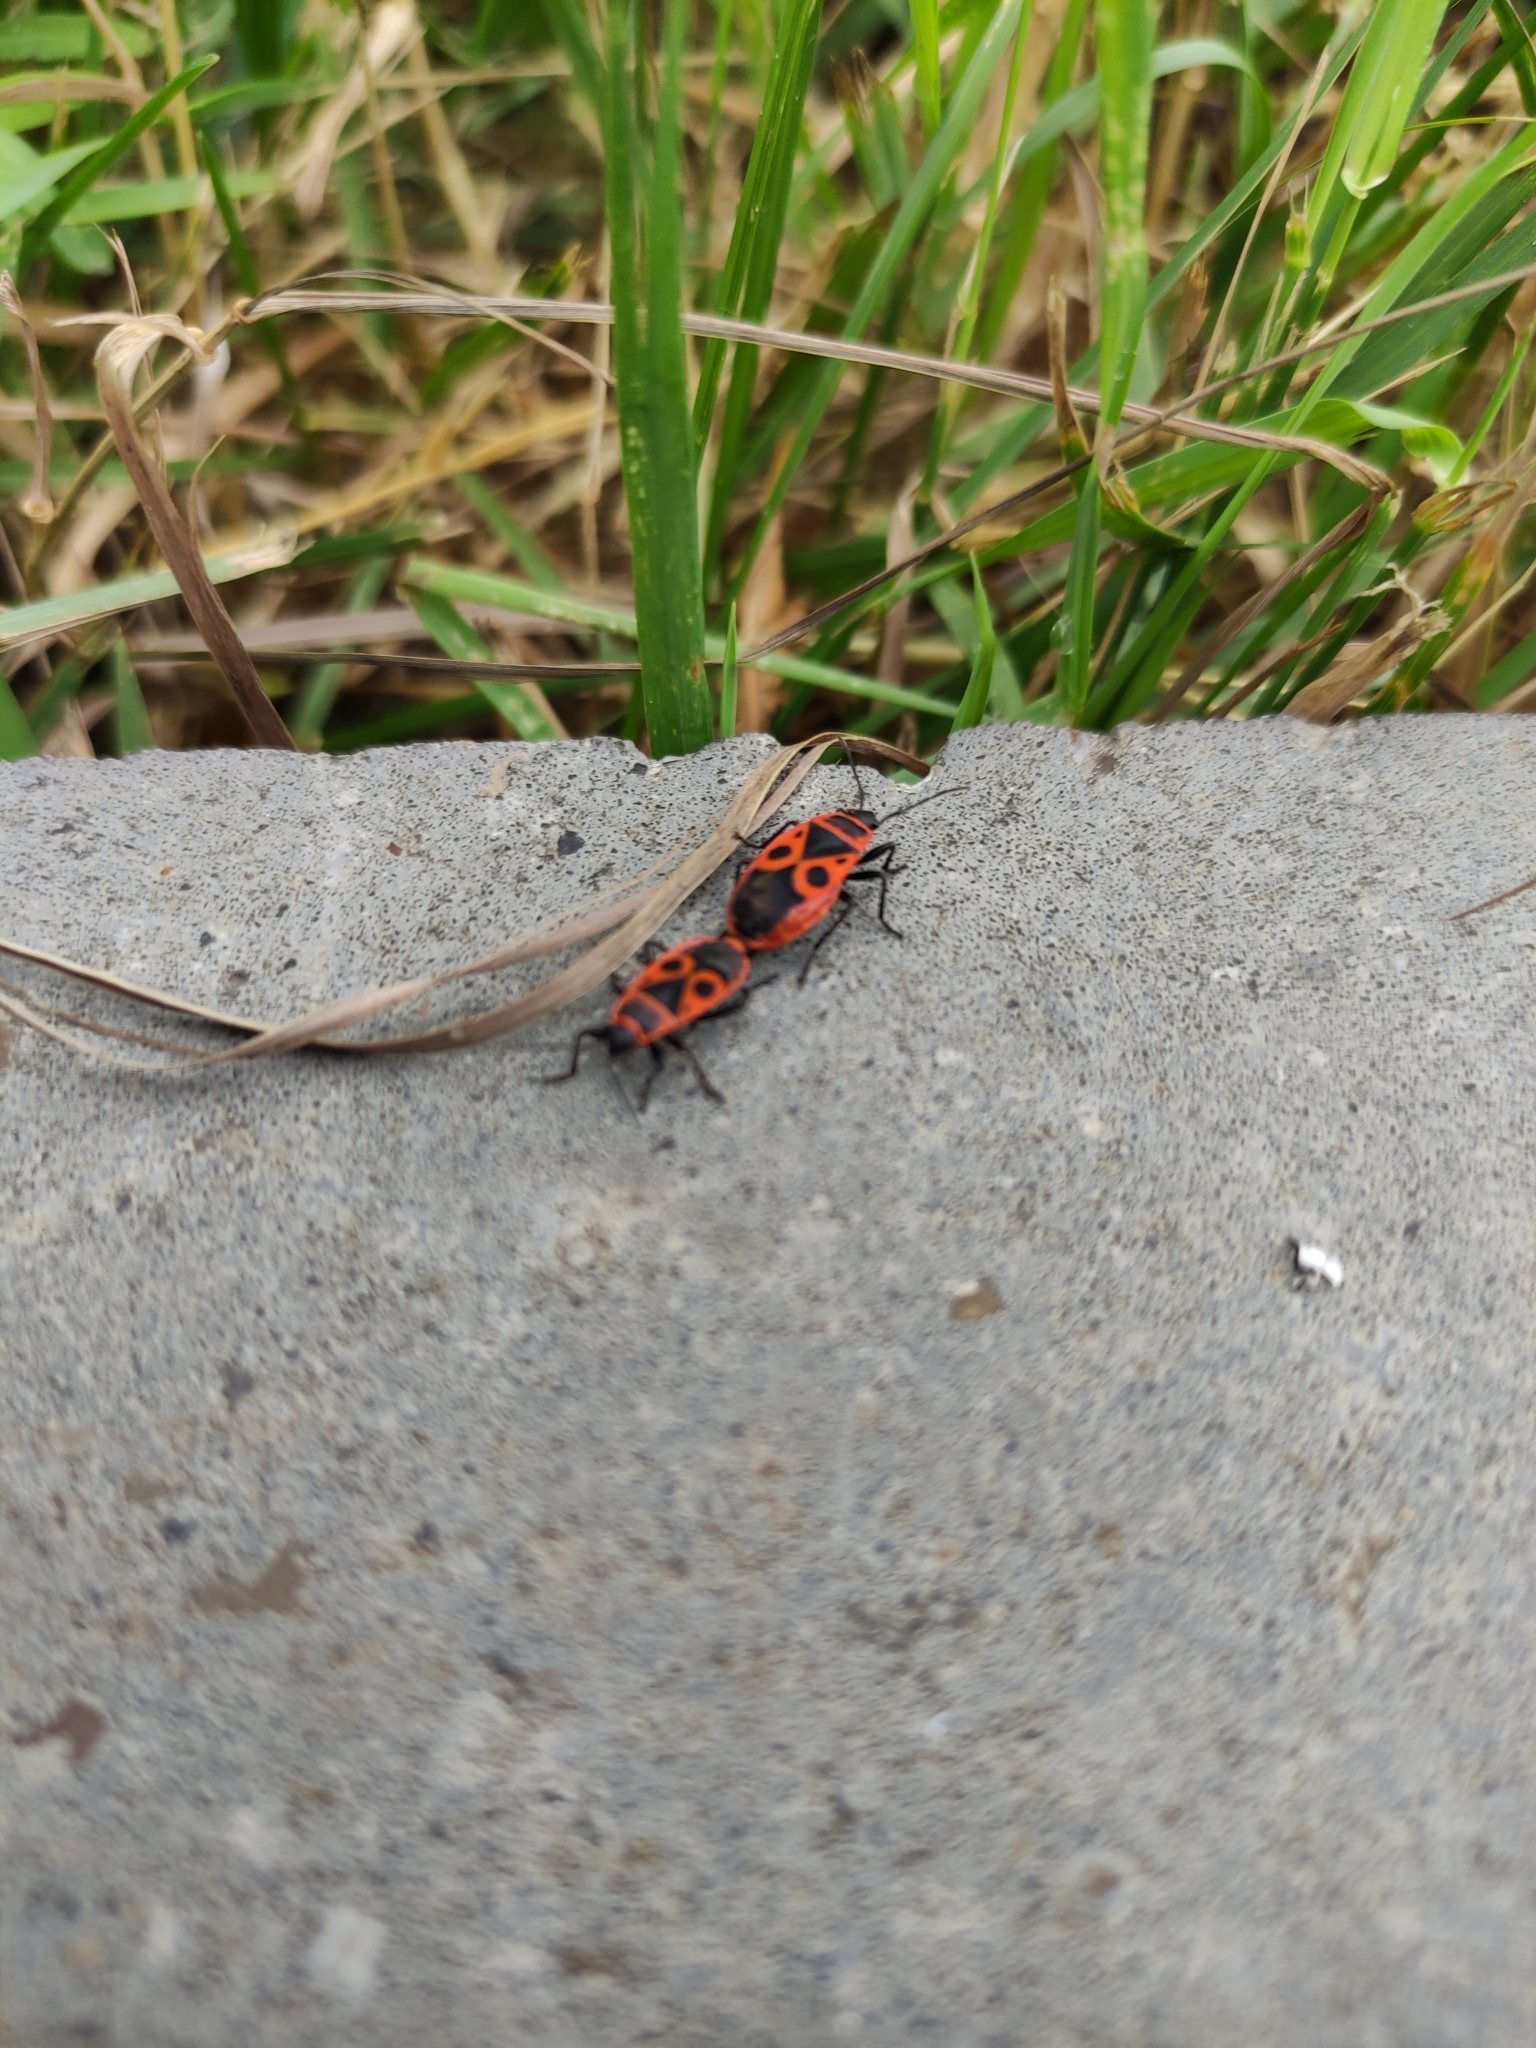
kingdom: Animalia
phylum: Arthropoda
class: Insecta
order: Hemiptera
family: Pyrrhocoridae
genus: Pyrrhocoris
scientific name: Pyrrhocoris apterus
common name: Firebug
